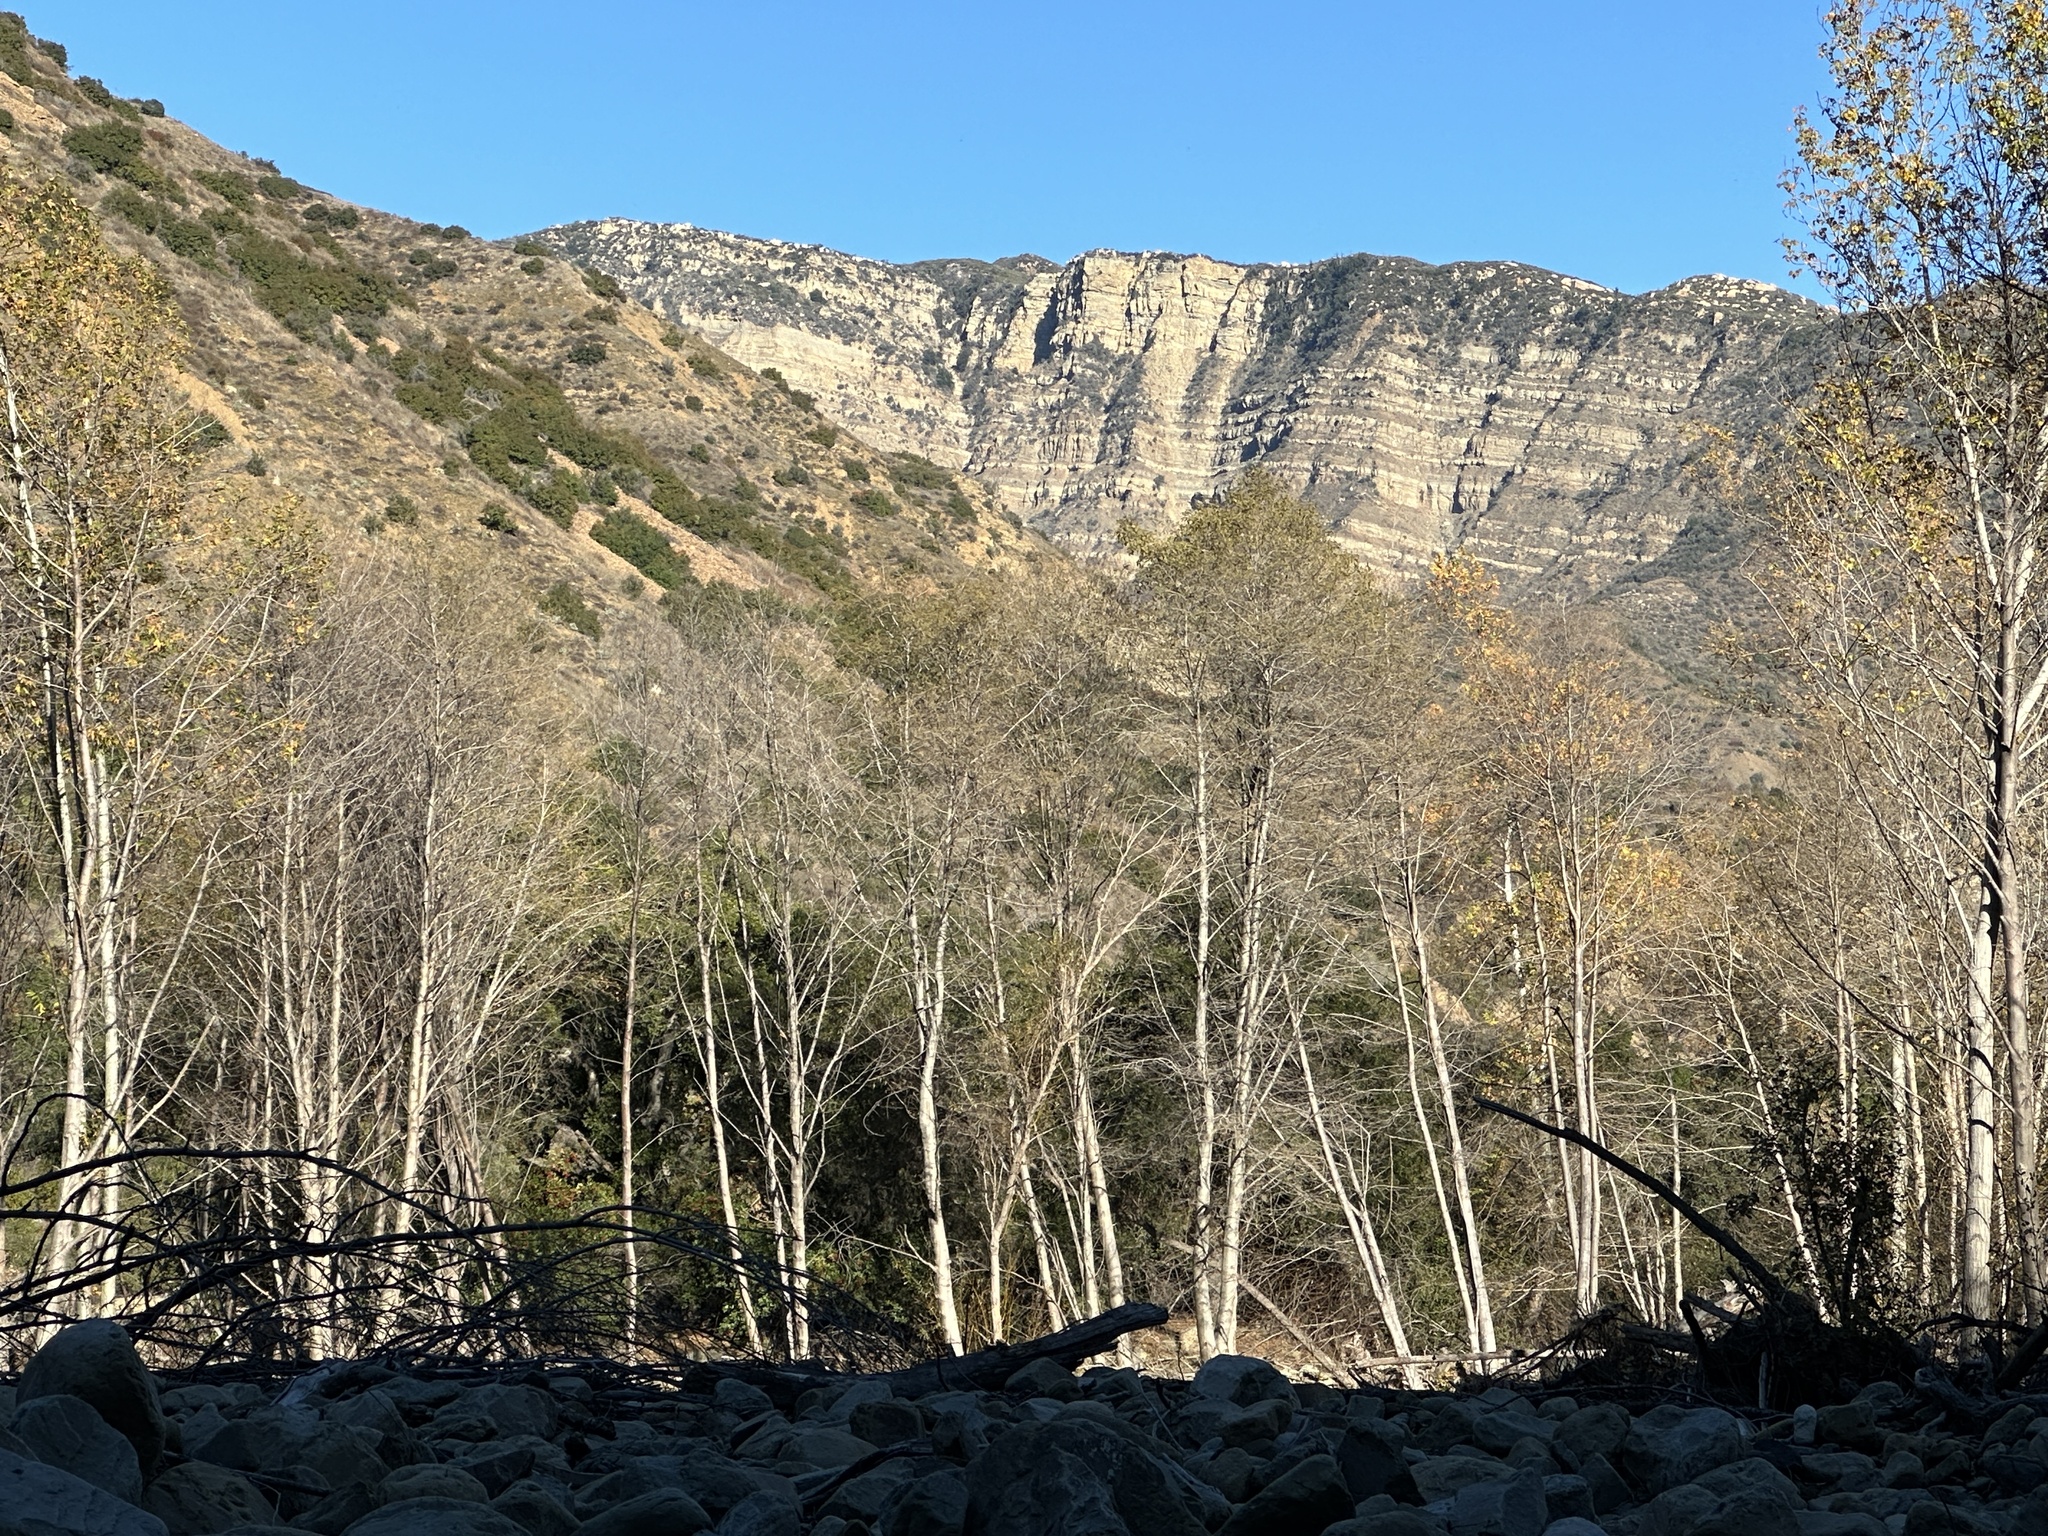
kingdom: Plantae
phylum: Tracheophyta
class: Magnoliopsida
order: Fagales
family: Betulaceae
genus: Alnus
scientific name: Alnus rhombifolia
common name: California alder
